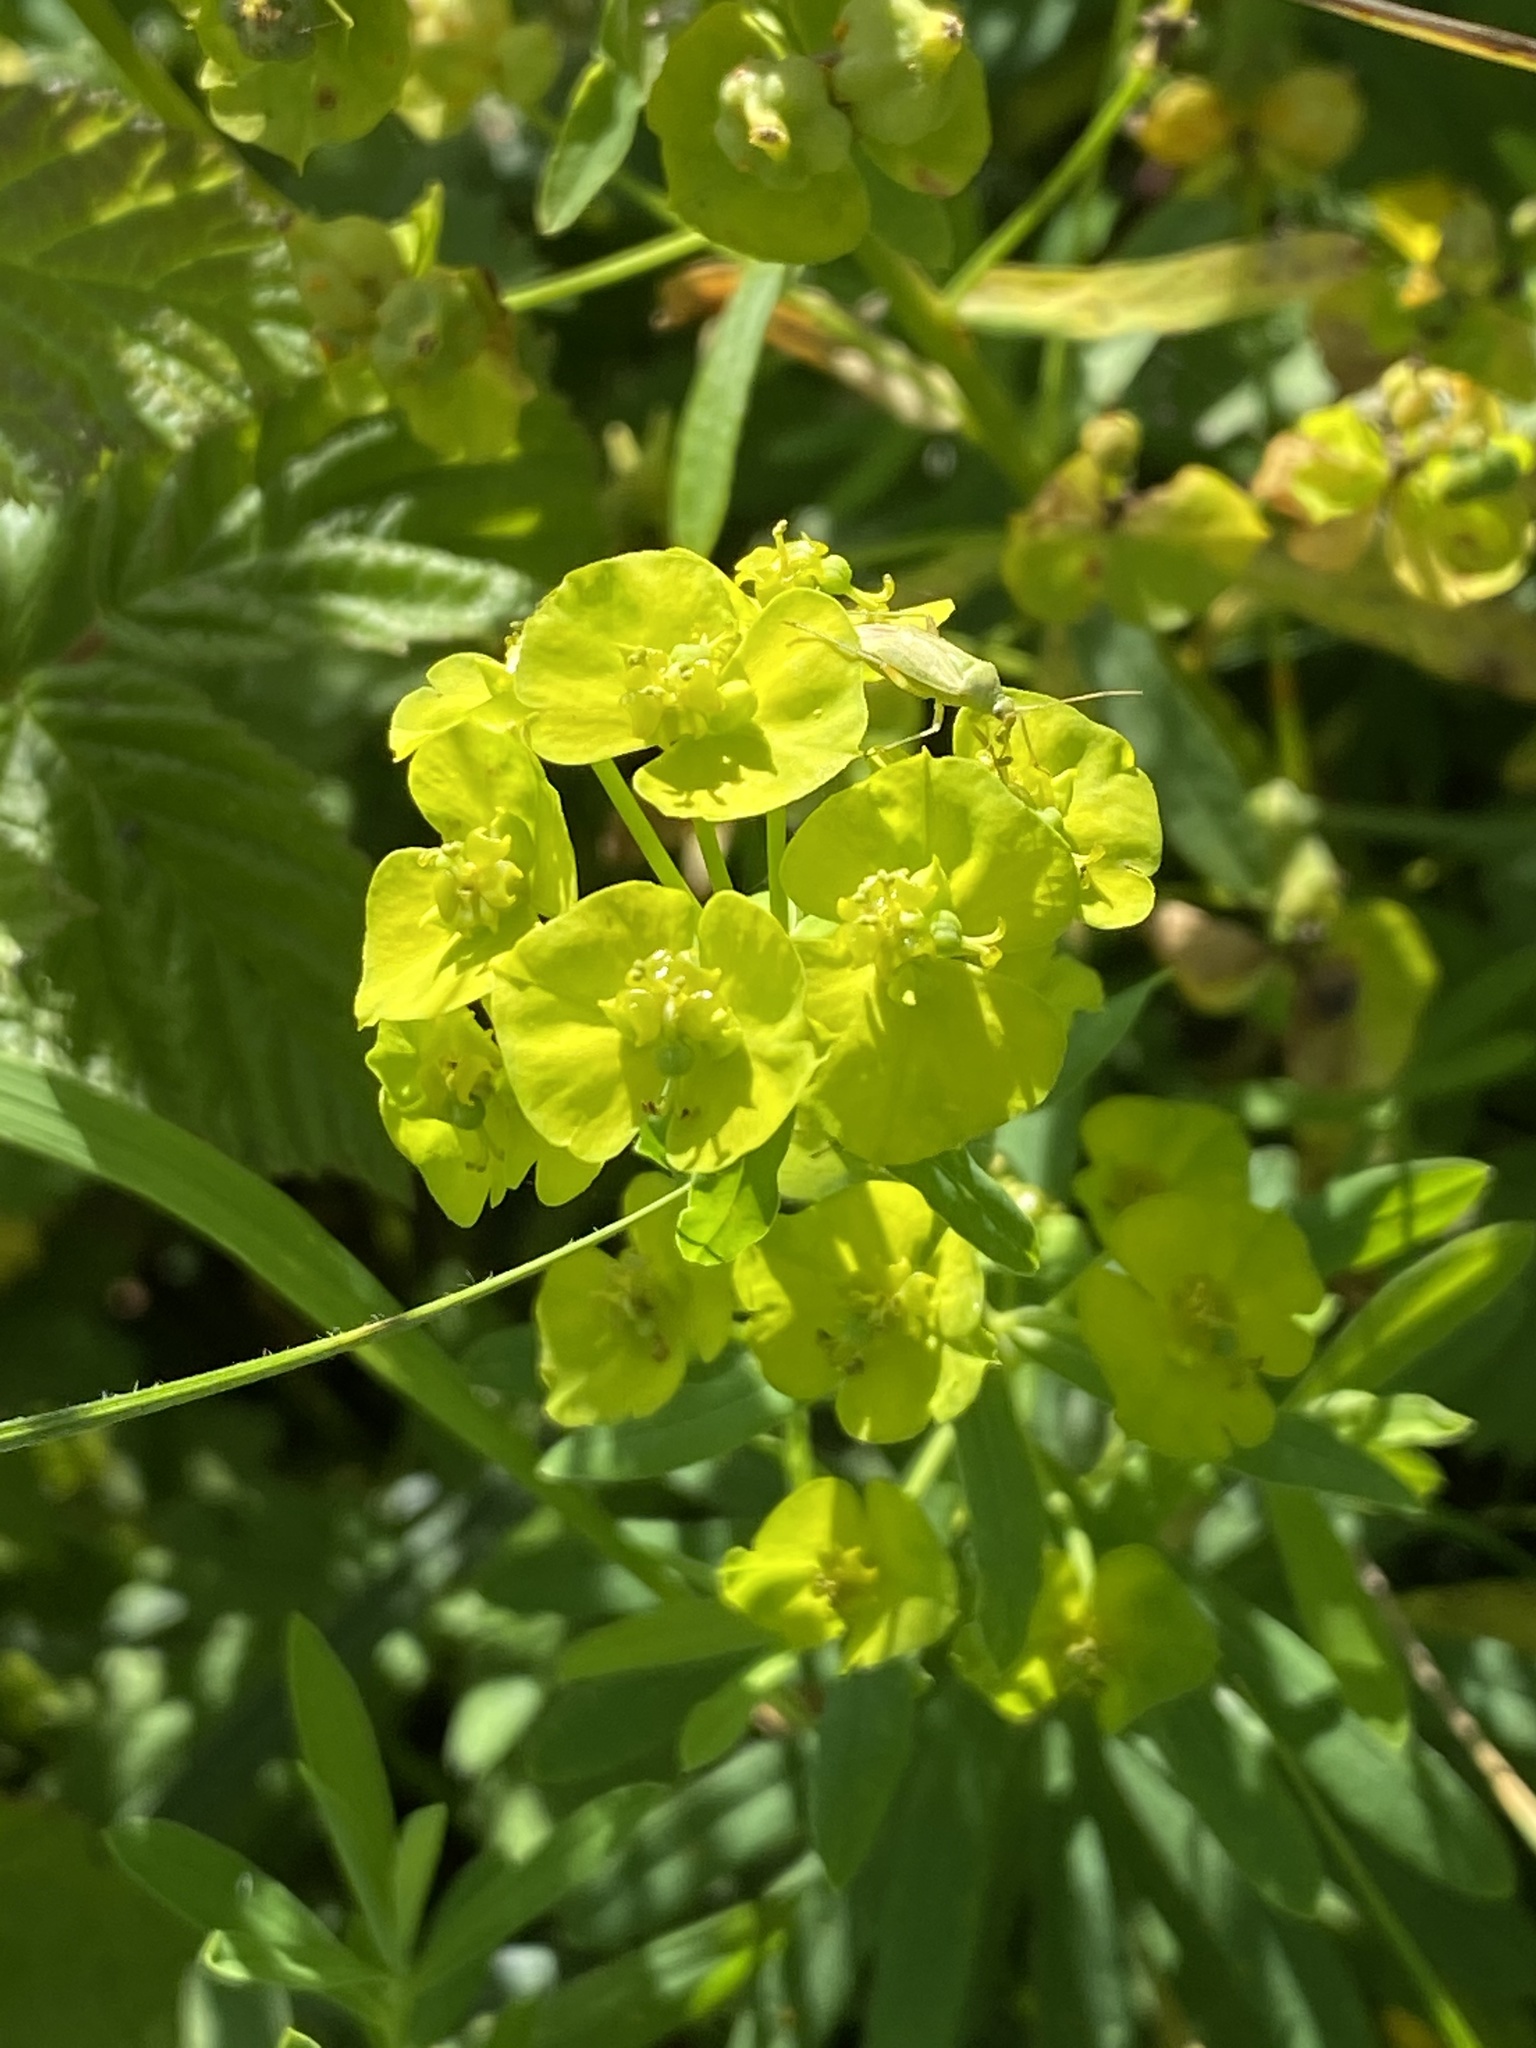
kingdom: Plantae
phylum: Tracheophyta
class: Magnoliopsida
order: Malpighiales
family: Euphorbiaceae
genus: Euphorbia
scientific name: Euphorbia esula
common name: Leafy spurge
